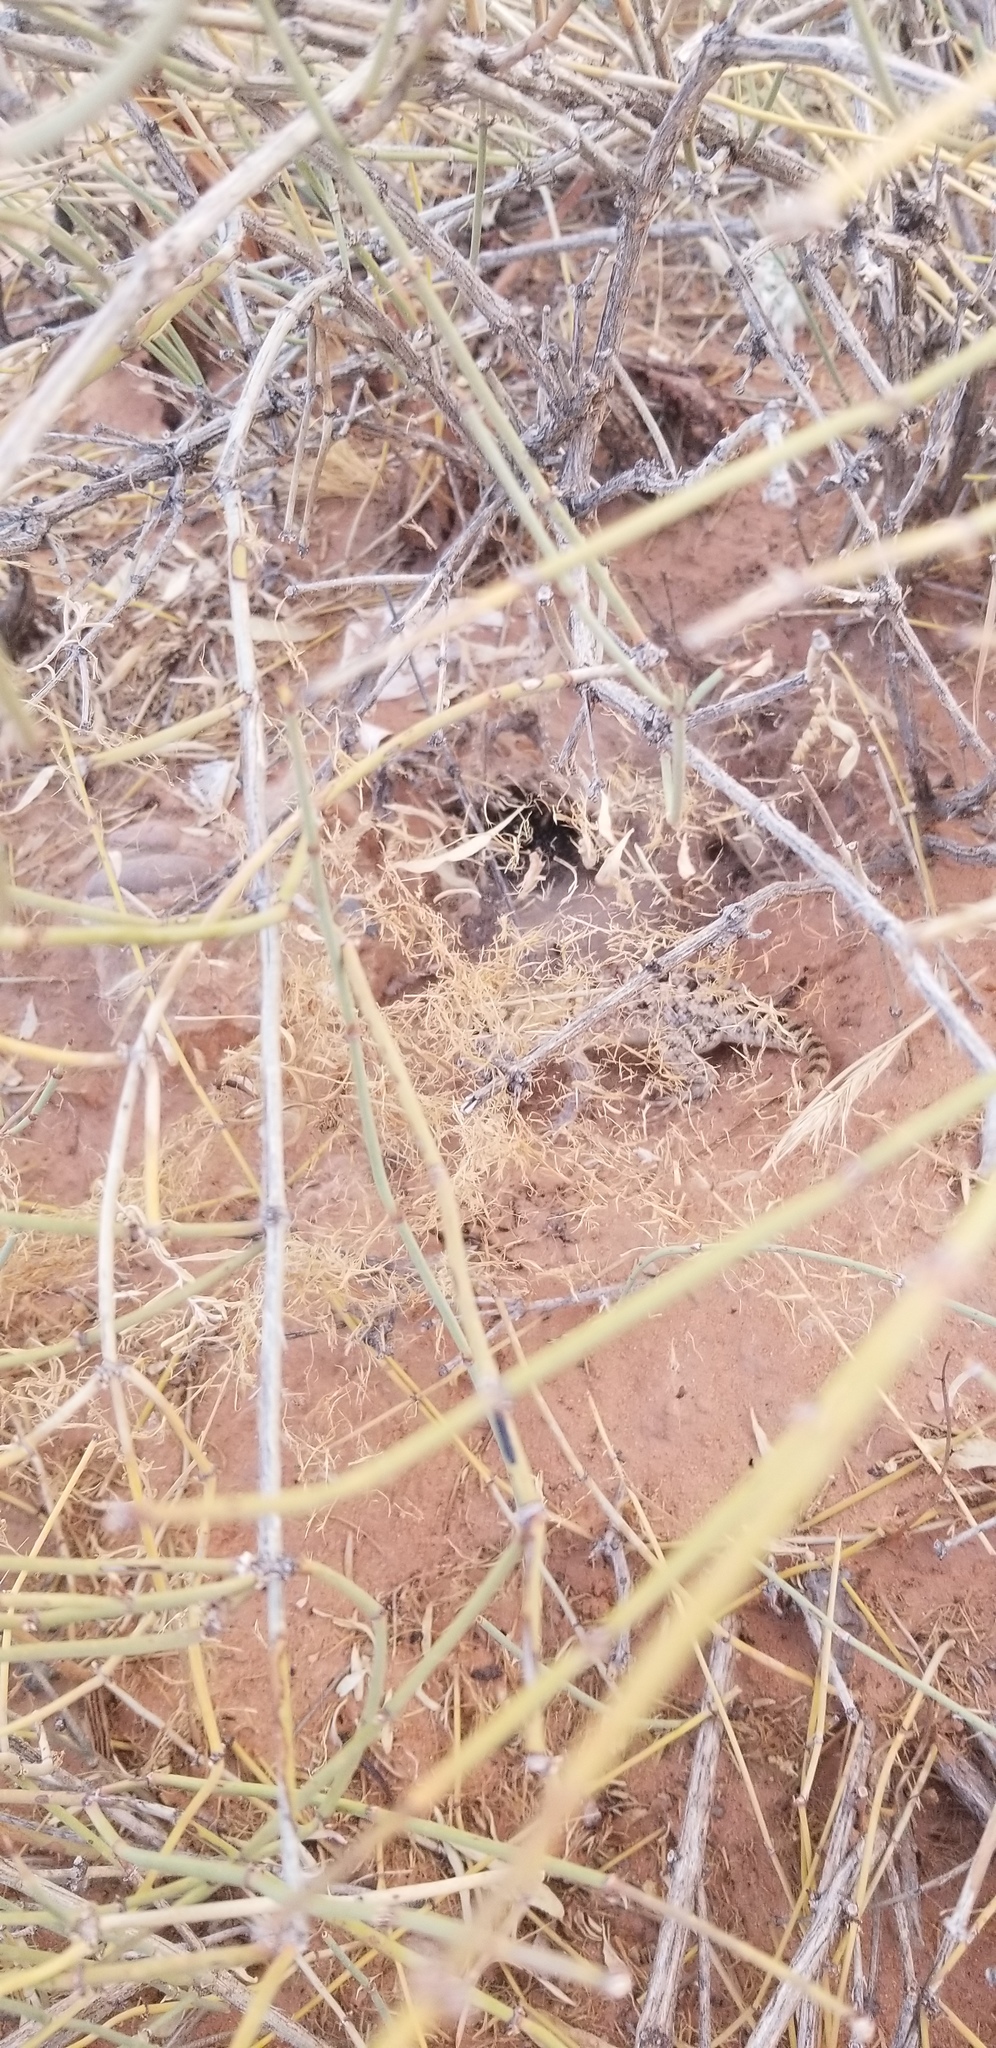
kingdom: Animalia
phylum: Chordata
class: Squamata
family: Phrynosomatidae
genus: Sceloporus
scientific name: Sceloporus magister
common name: Desert spiny lizard
